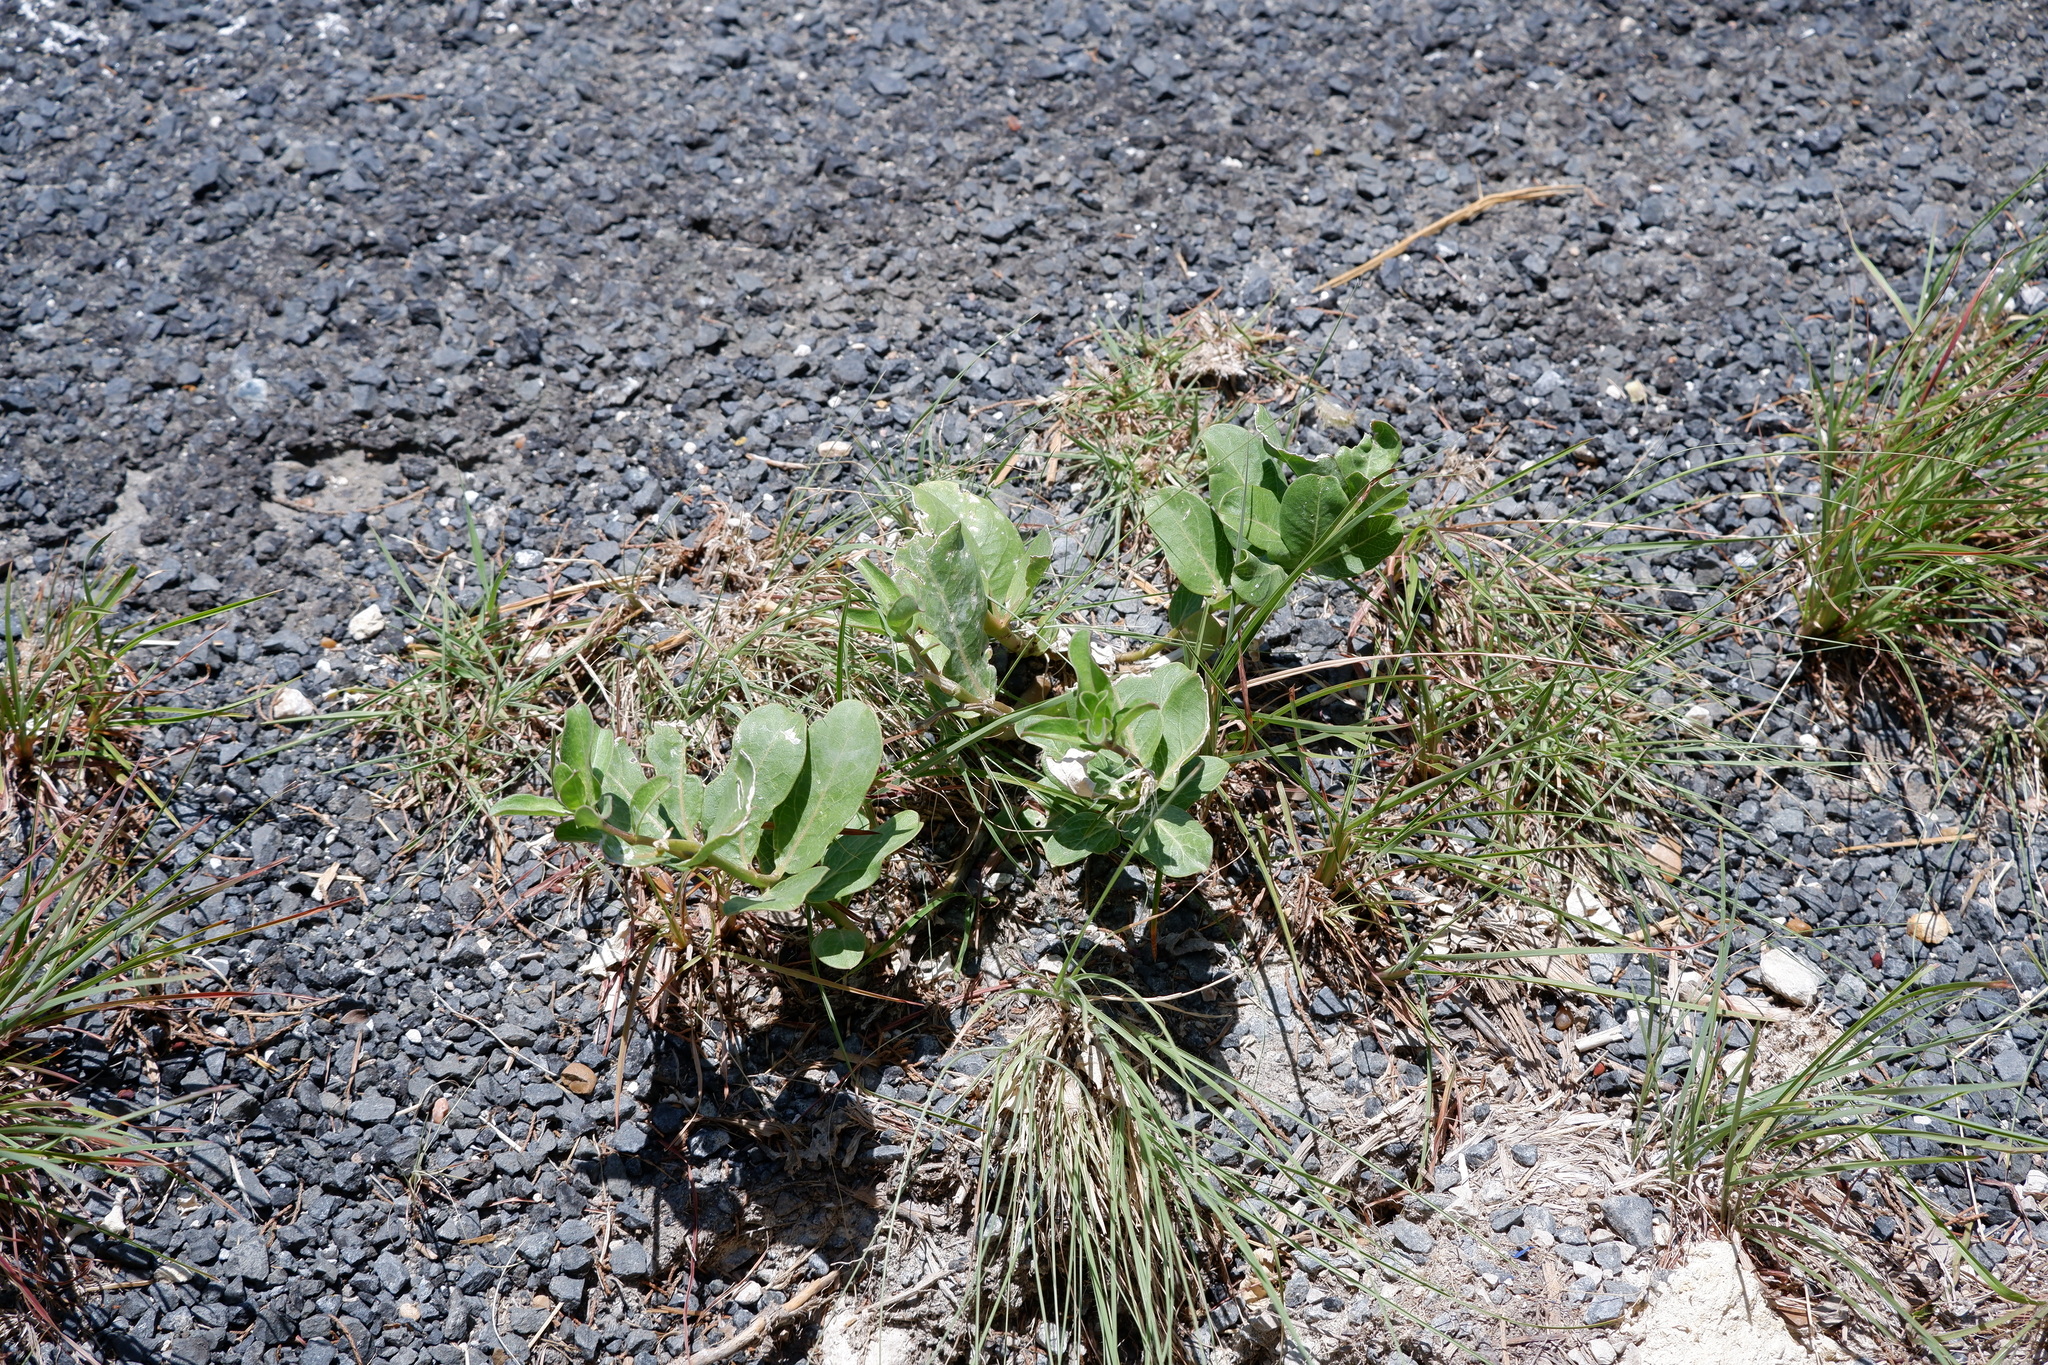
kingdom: Plantae
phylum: Tracheophyta
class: Magnoliopsida
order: Gentianales
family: Apocynaceae
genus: Asclepias
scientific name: Asclepias viridis
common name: Antelope-horns
